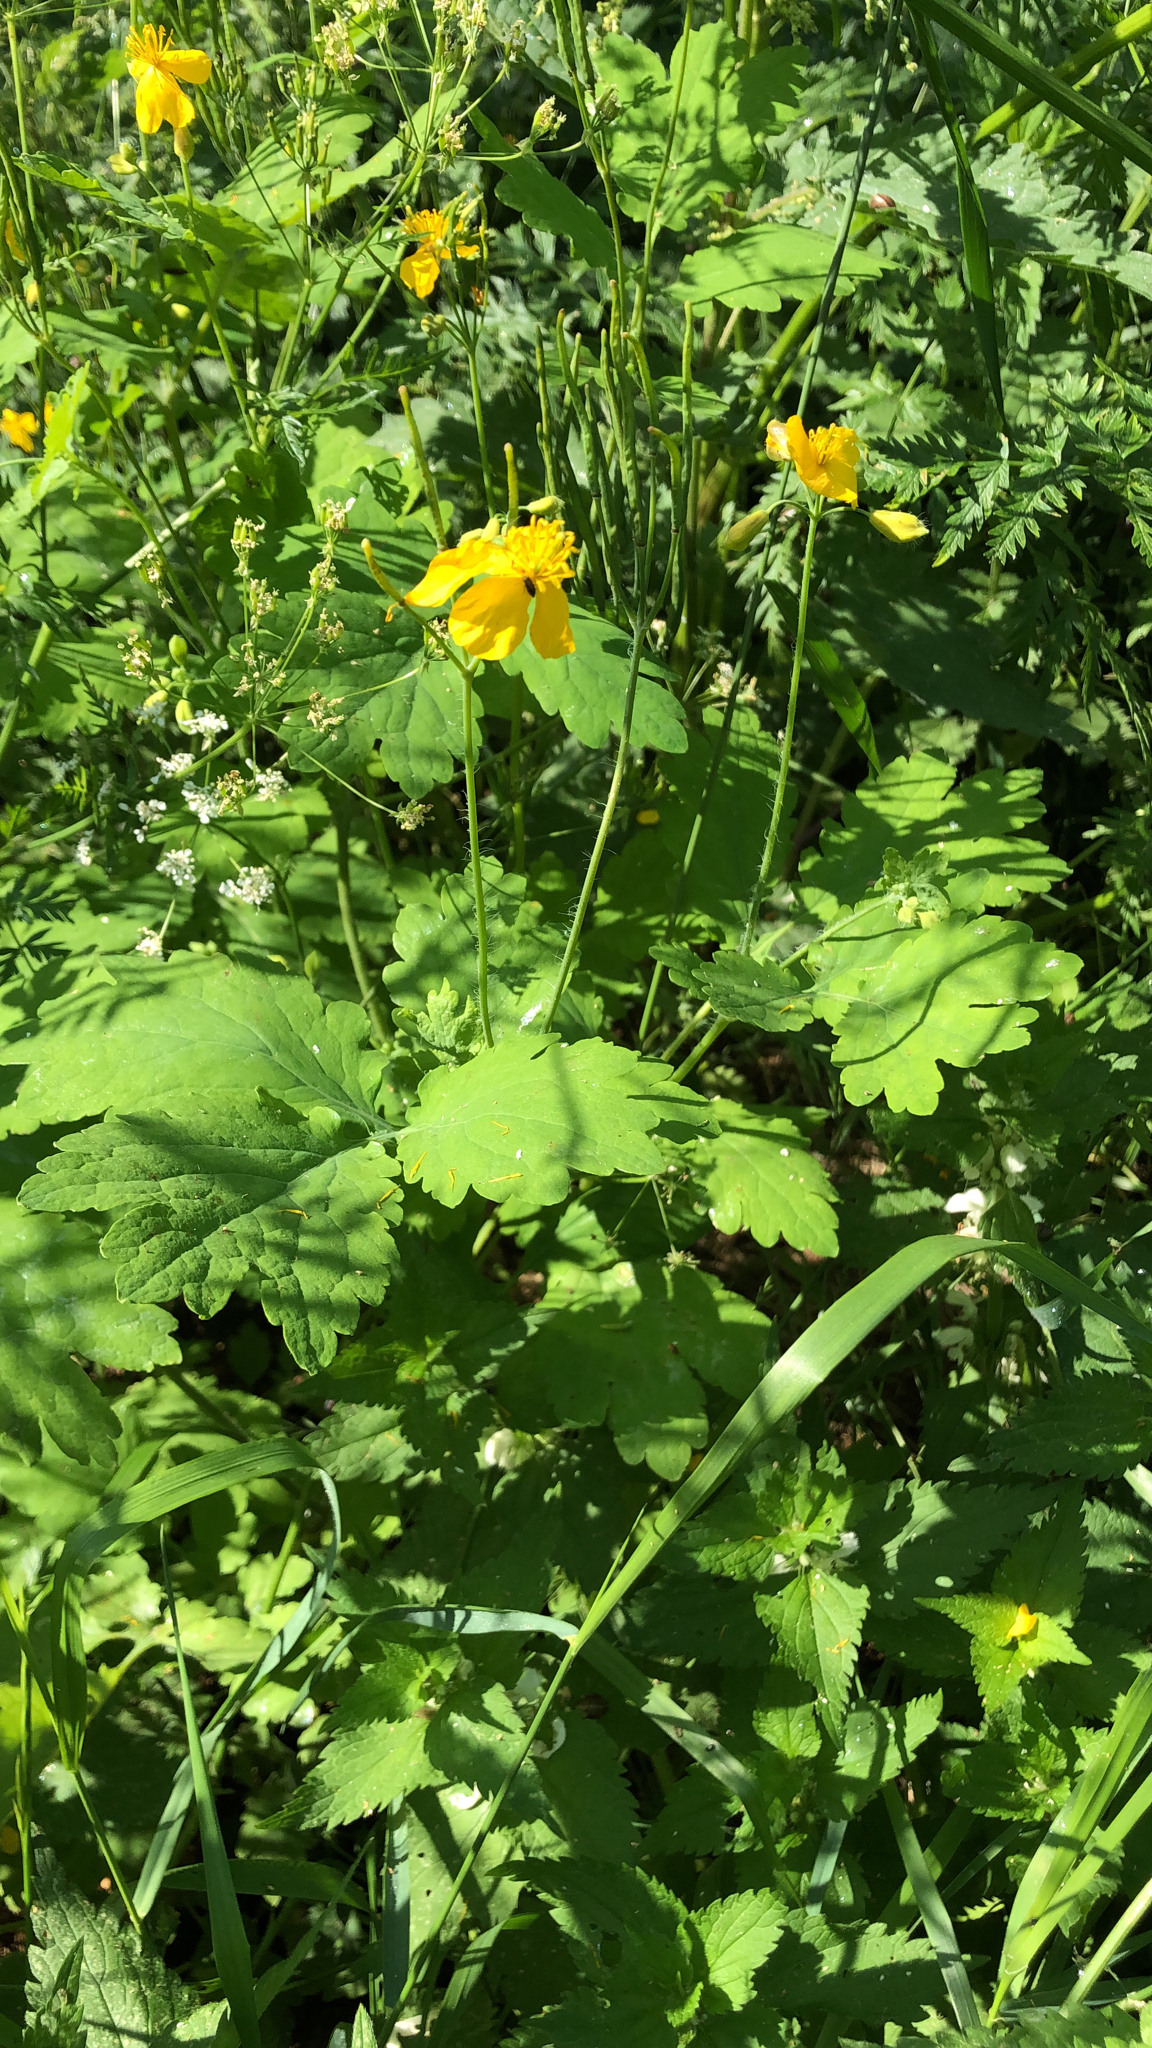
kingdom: Plantae
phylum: Tracheophyta
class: Magnoliopsida
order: Ranunculales
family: Papaveraceae
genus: Chelidonium
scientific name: Chelidonium majus
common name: Greater celandine
